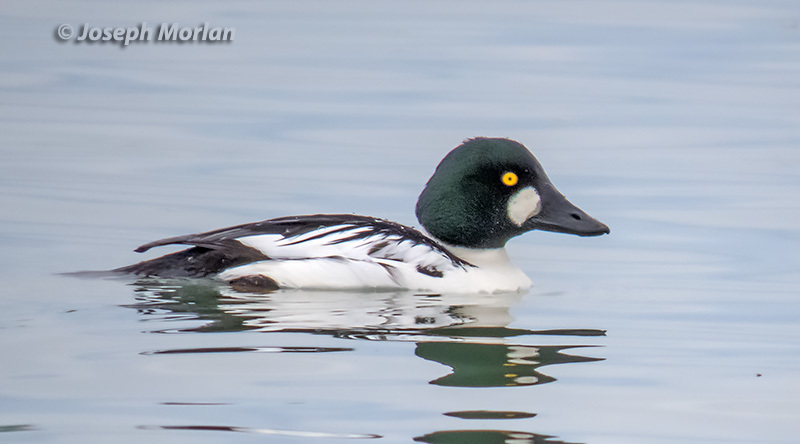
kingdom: Animalia
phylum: Chordata
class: Aves
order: Anseriformes
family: Anatidae
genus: Bucephala
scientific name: Bucephala clangula
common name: Common goldeneye
